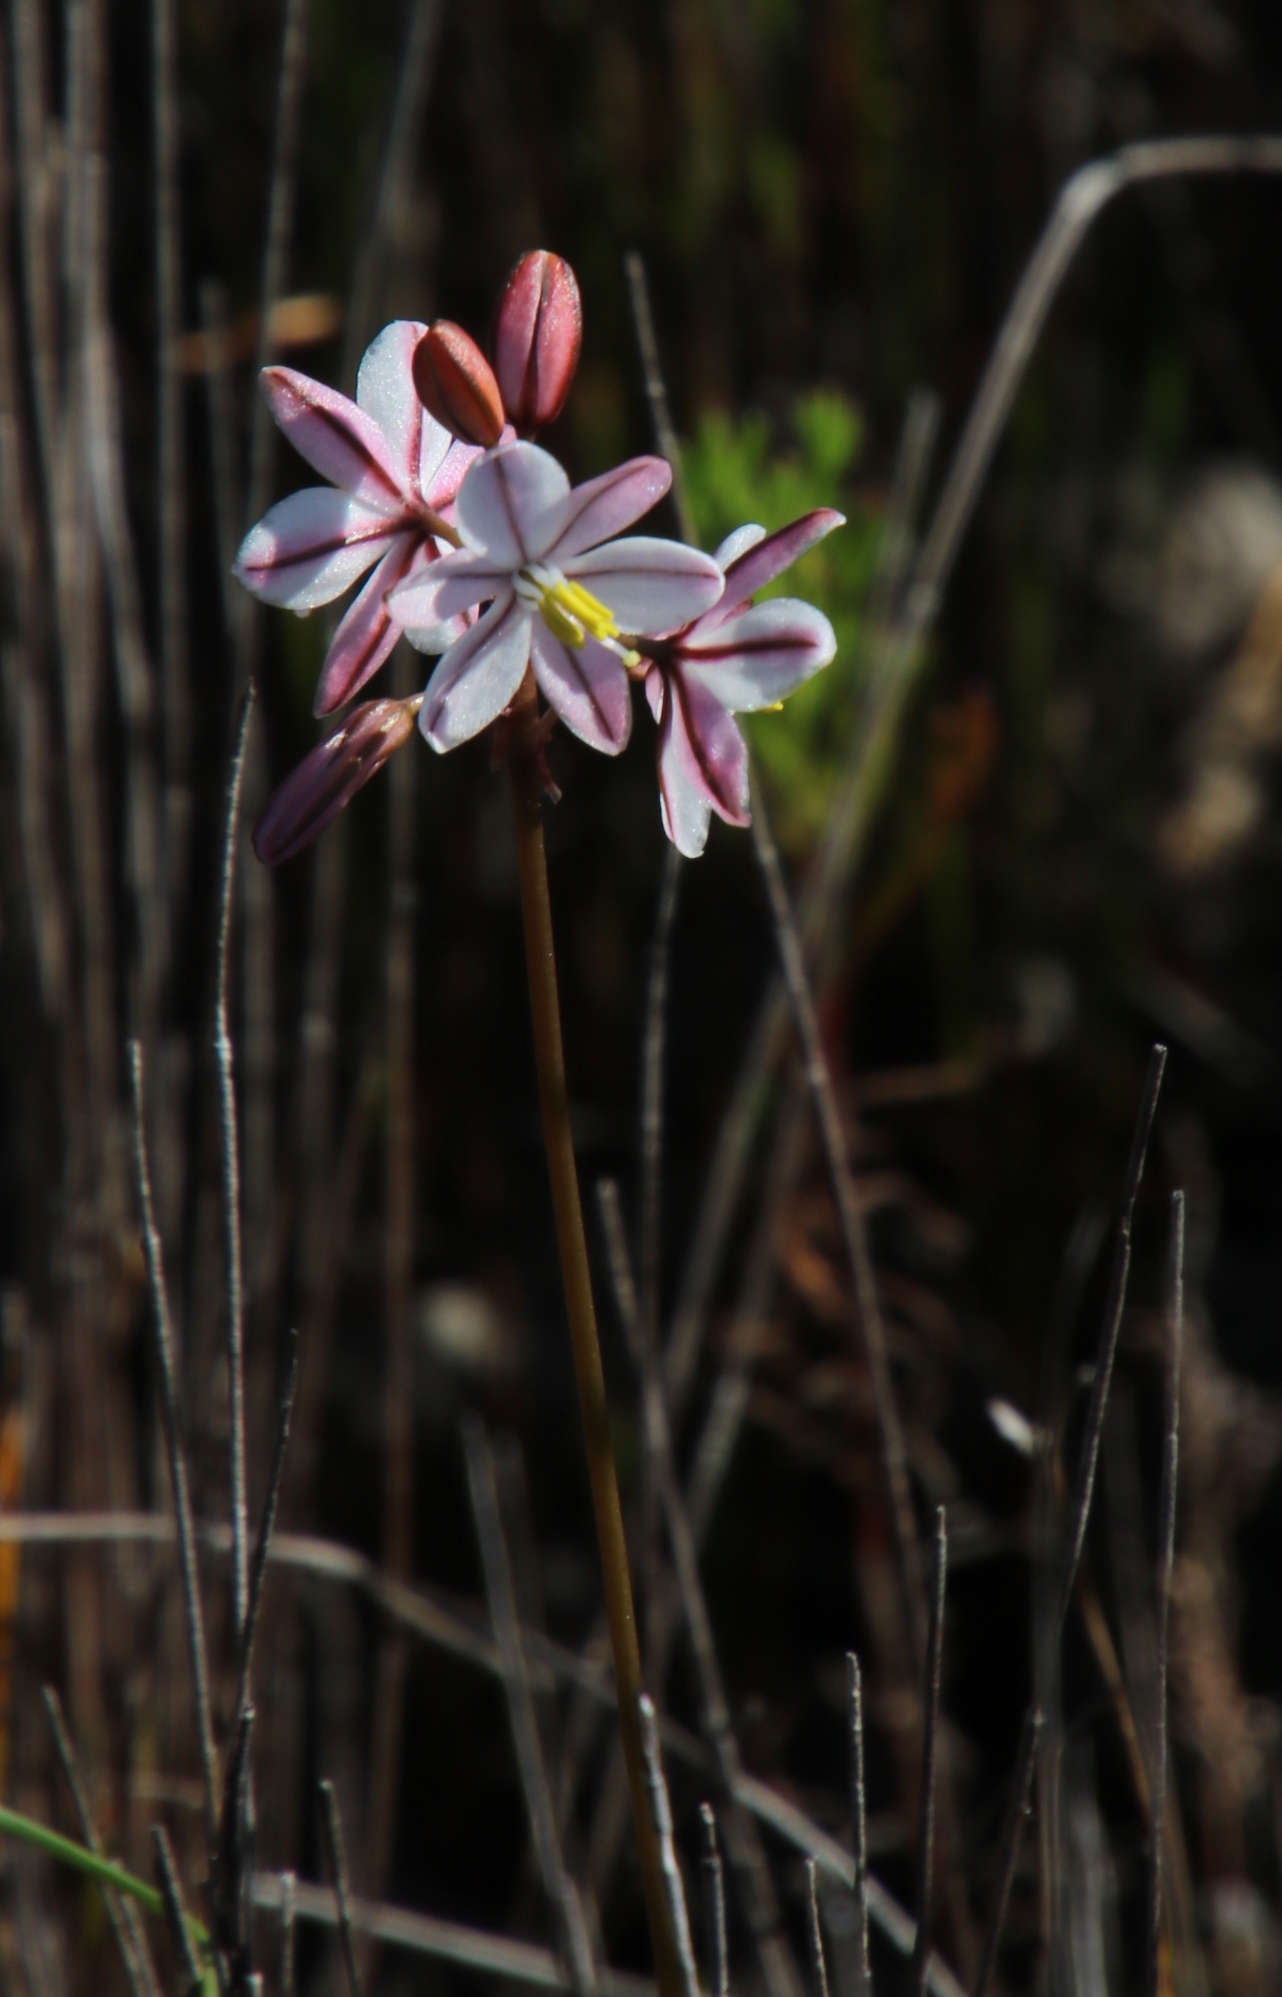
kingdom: Plantae
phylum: Tracheophyta
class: Liliopsida
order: Asparagales
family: Asparagaceae
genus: Drimia
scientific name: Drimia exuviata
